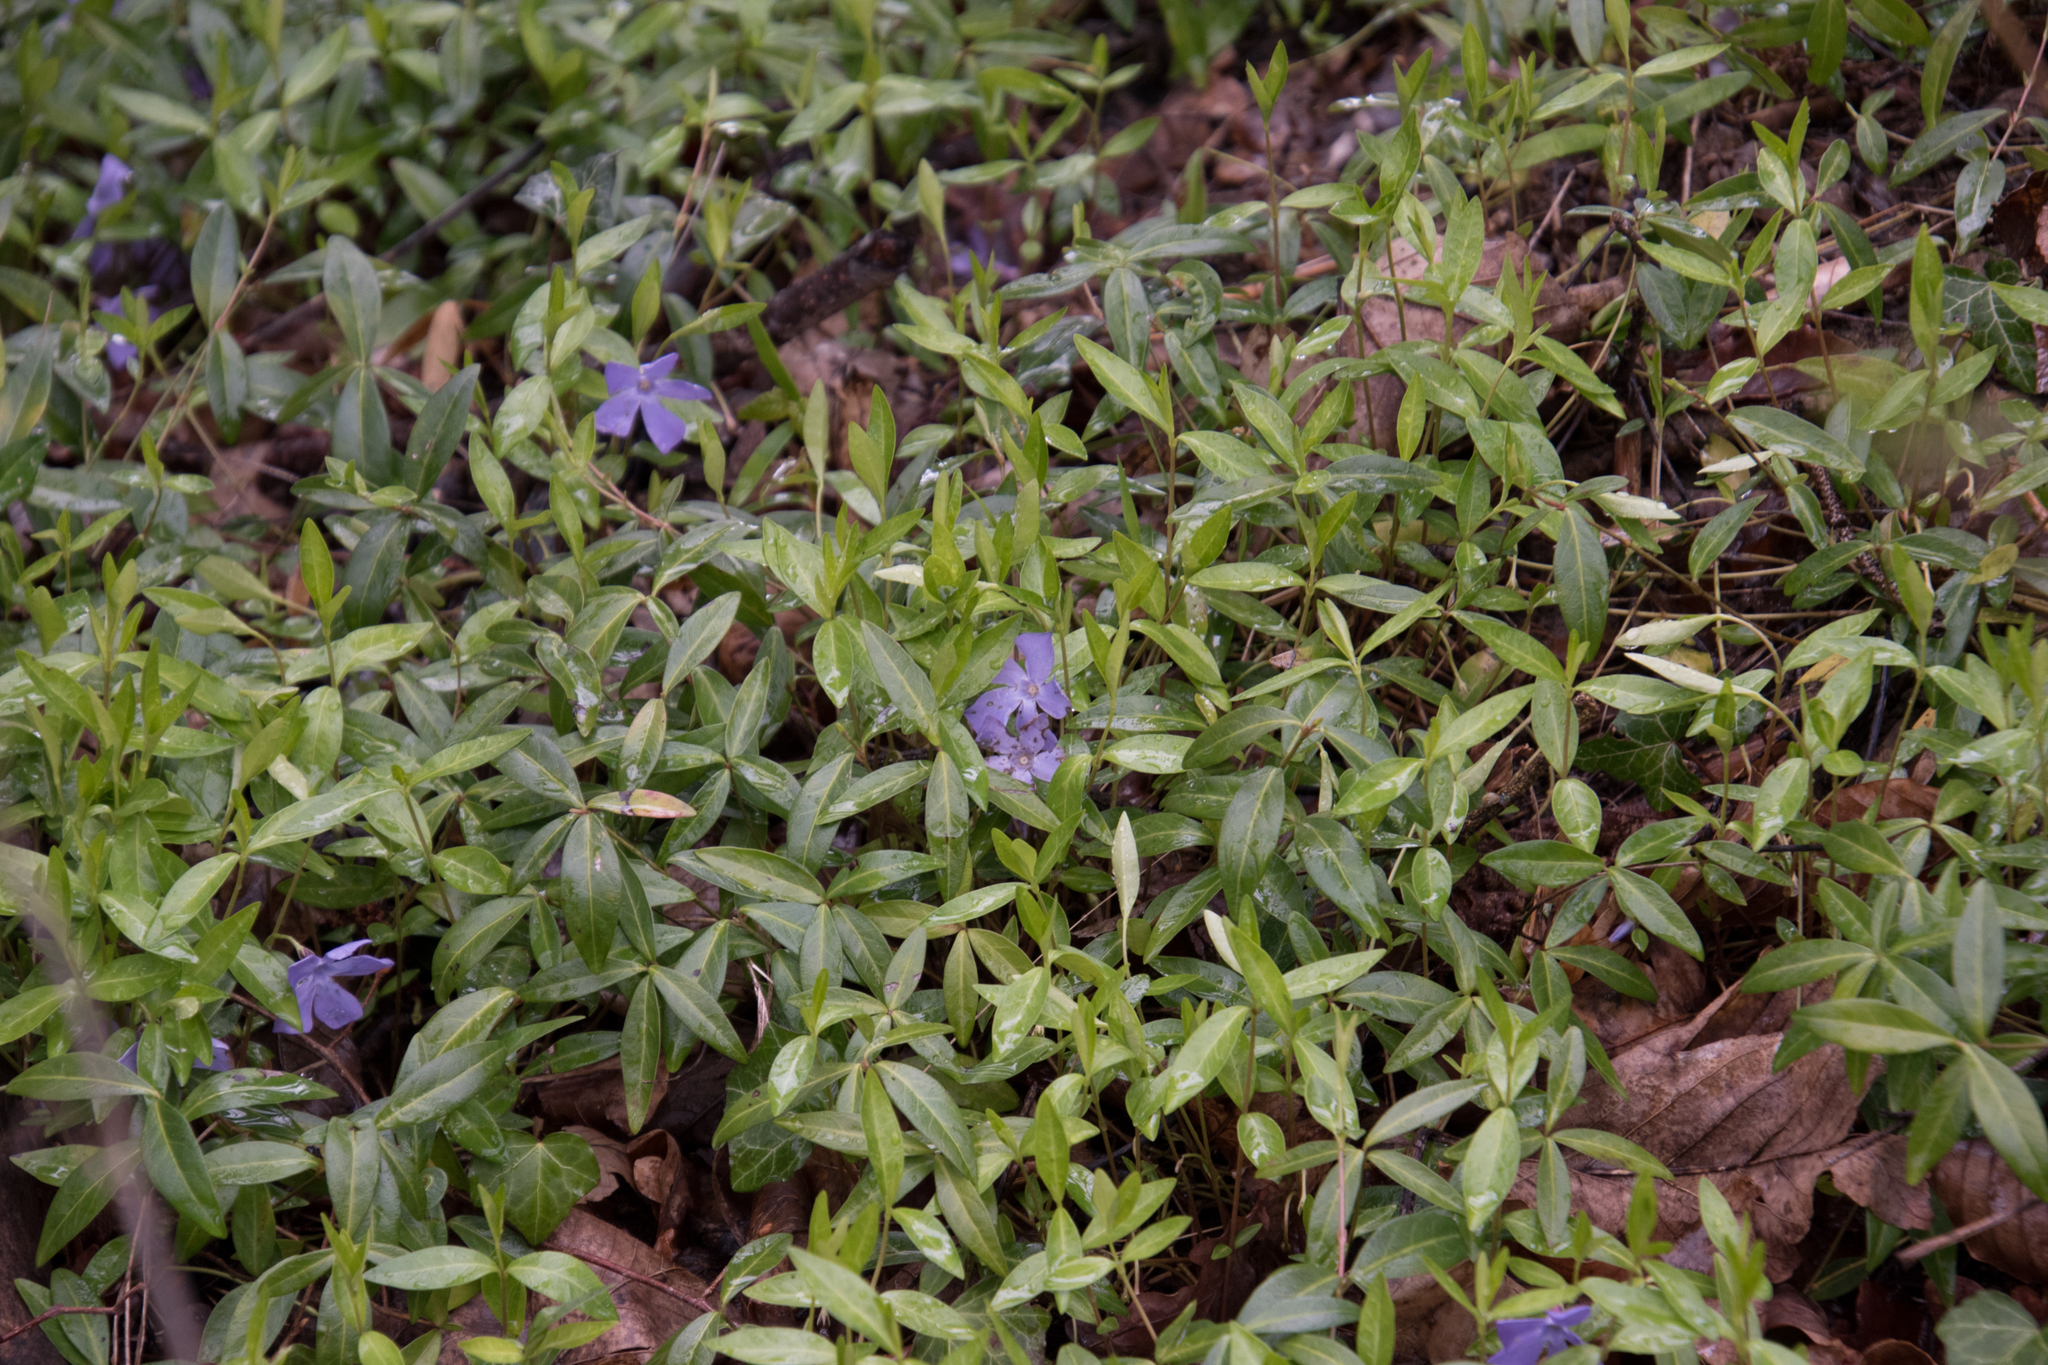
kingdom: Plantae
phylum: Tracheophyta
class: Magnoliopsida
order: Gentianales
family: Apocynaceae
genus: Vinca
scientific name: Vinca minor
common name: Lesser periwinkle
